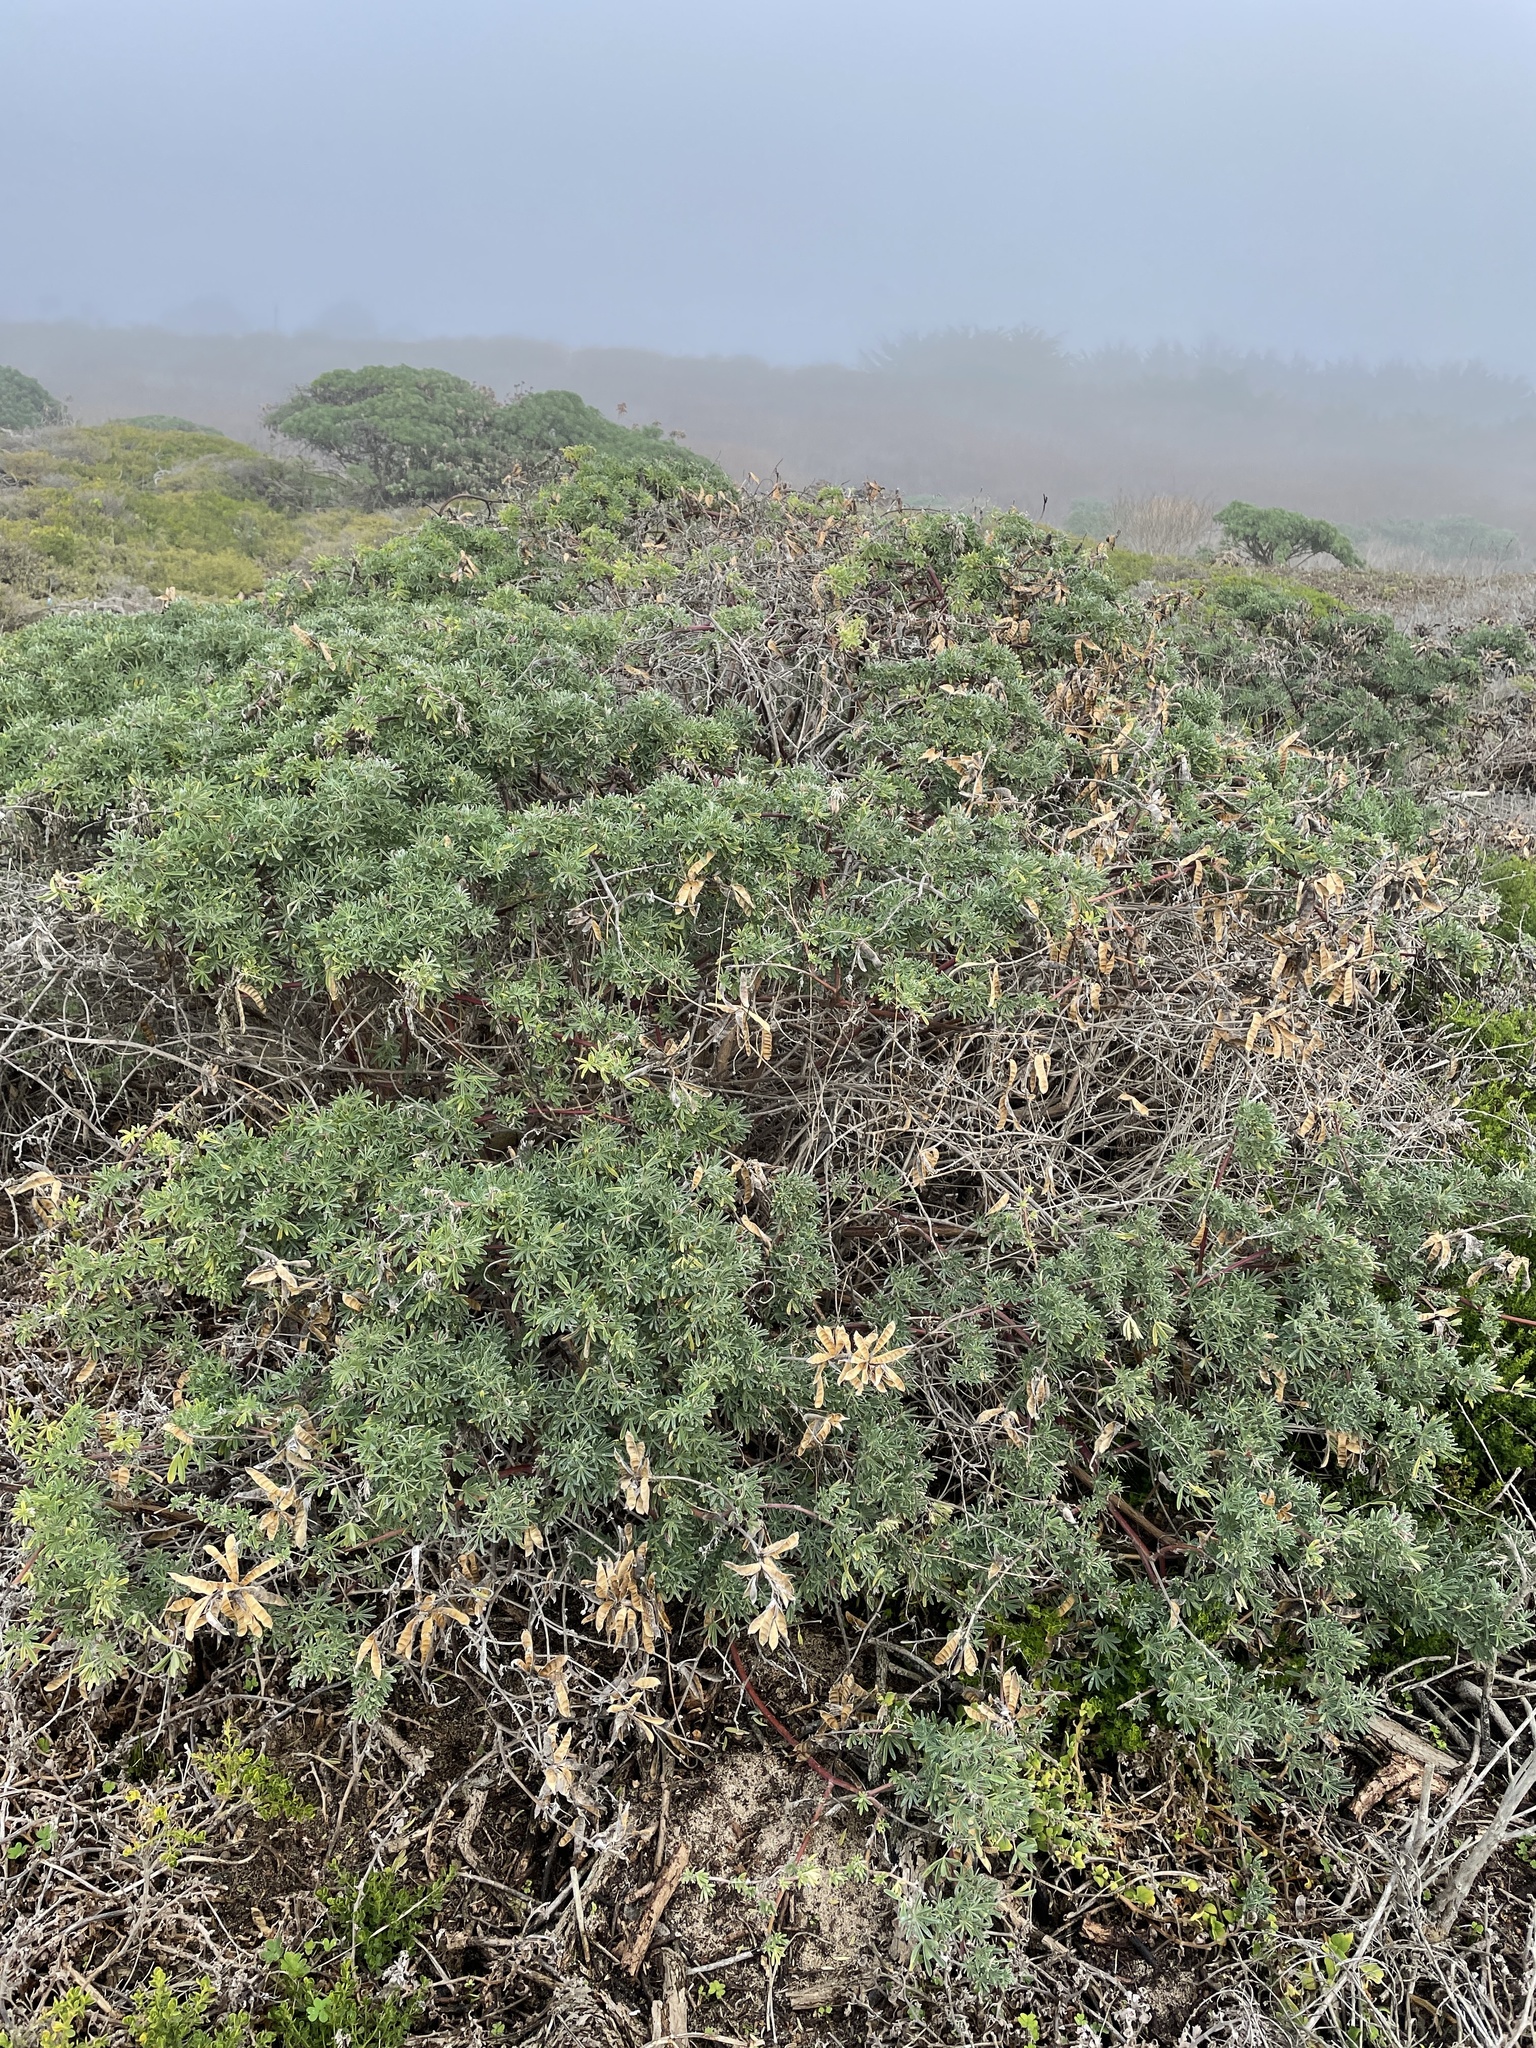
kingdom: Plantae
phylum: Tracheophyta
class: Magnoliopsida
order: Fabales
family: Fabaceae
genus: Lupinus
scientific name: Lupinus arboreus
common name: Yellow bush lupine
